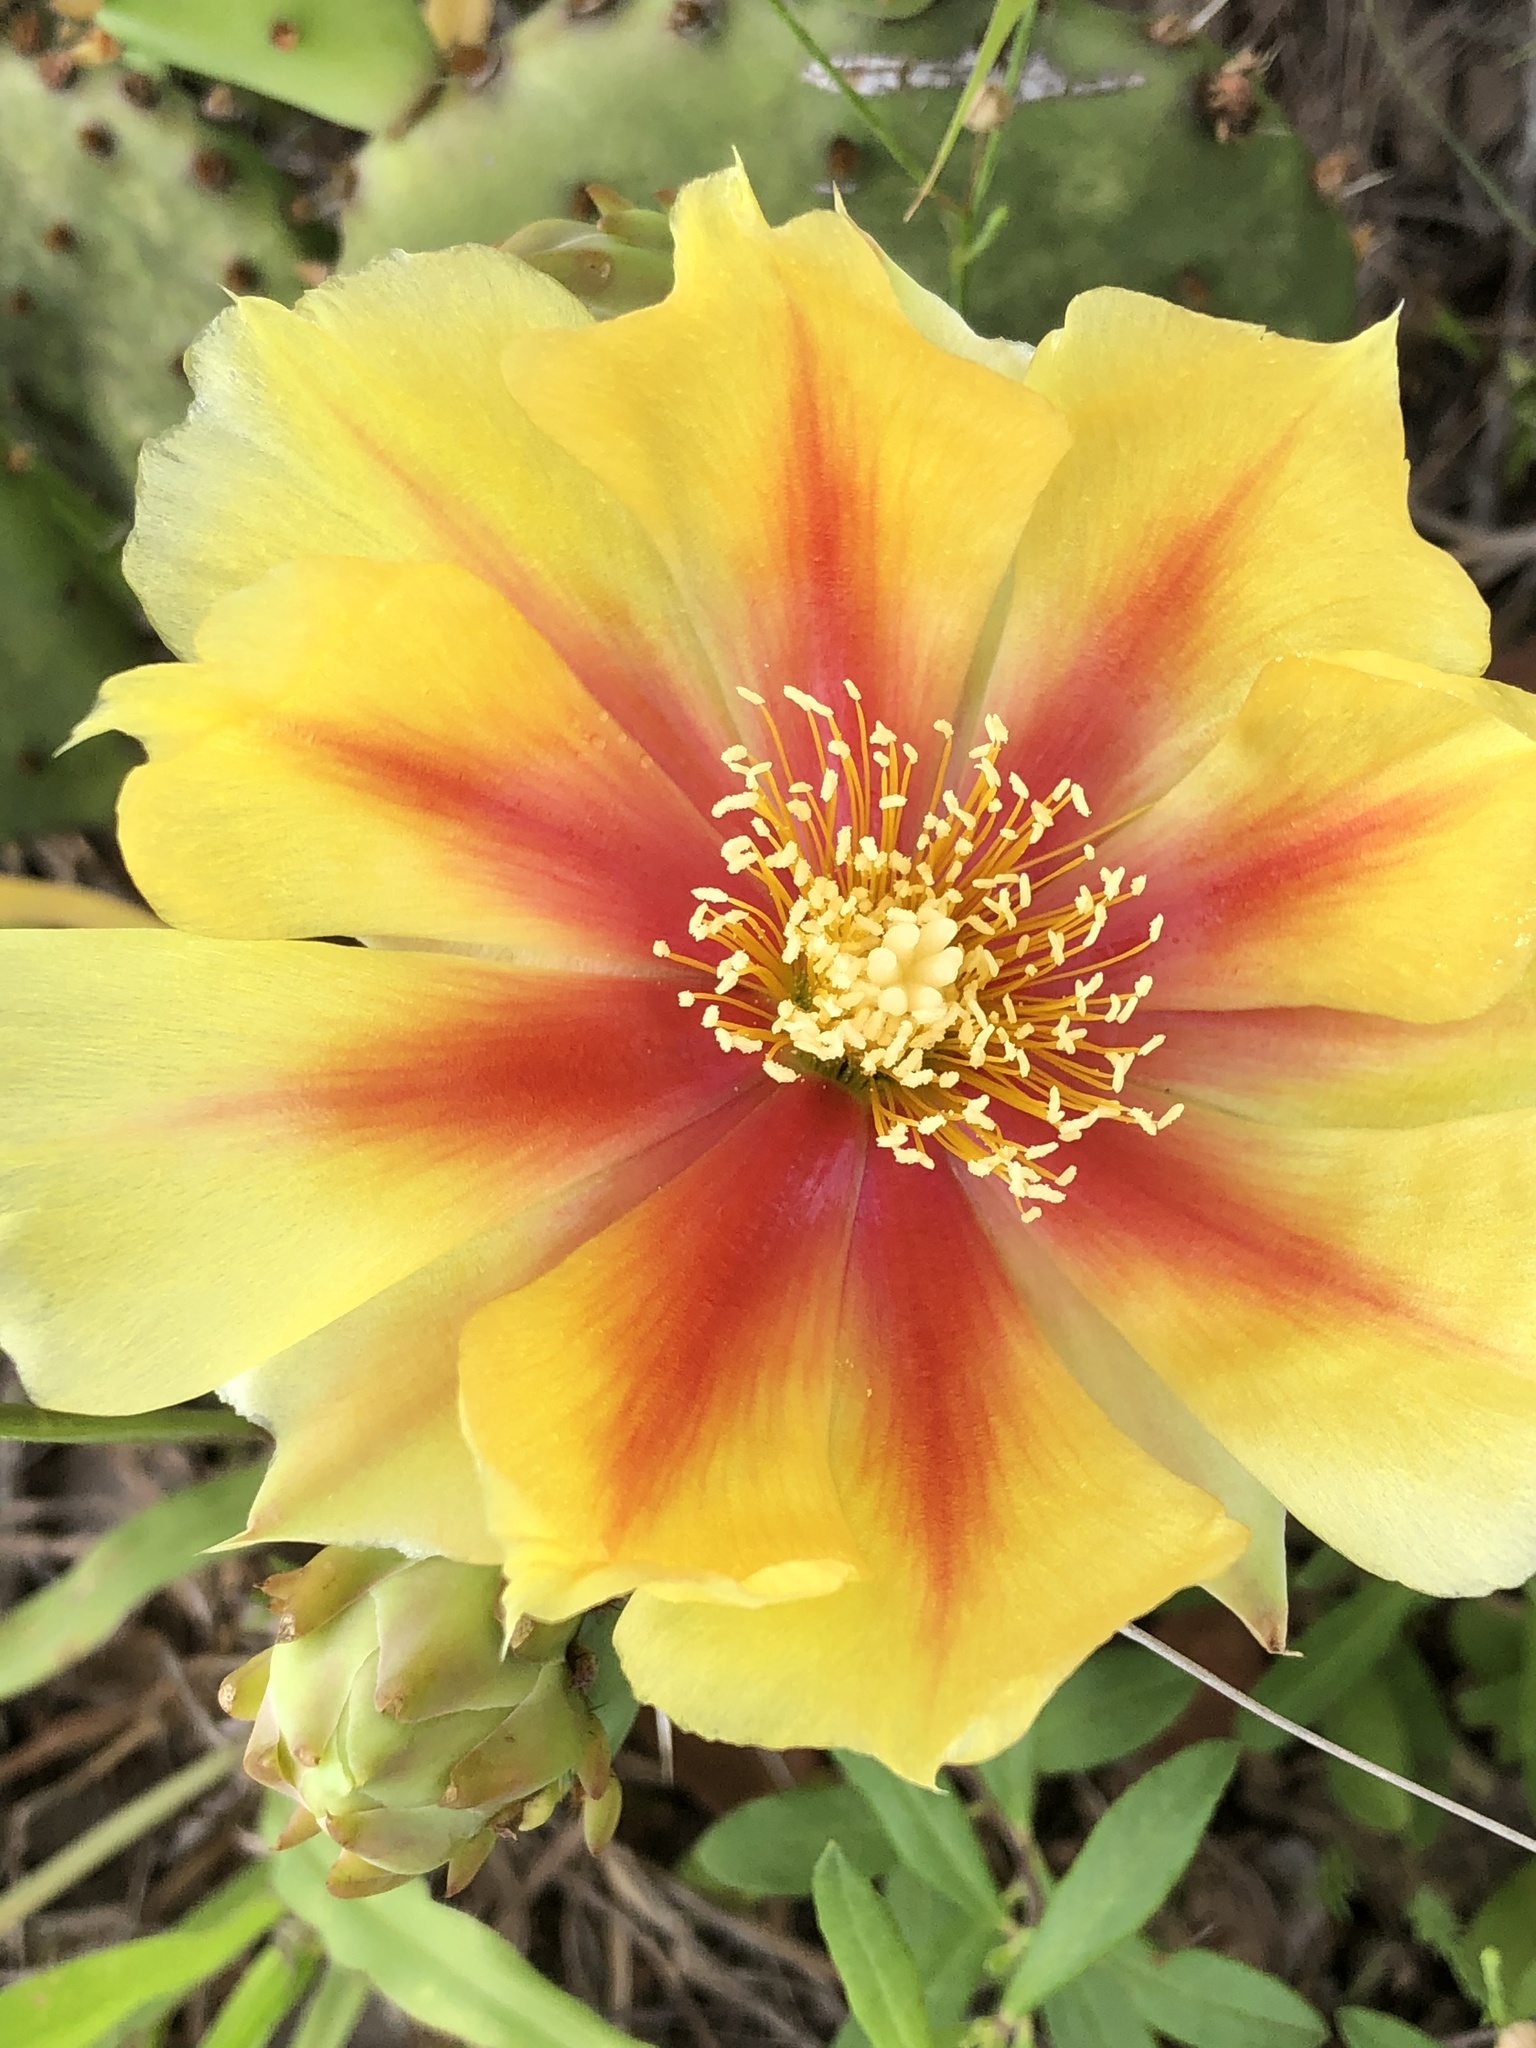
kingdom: Plantae
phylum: Tracheophyta
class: Magnoliopsida
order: Caryophyllales
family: Cactaceae
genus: Opuntia
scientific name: Opuntia macrorhiza
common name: Grassland pricklypear
